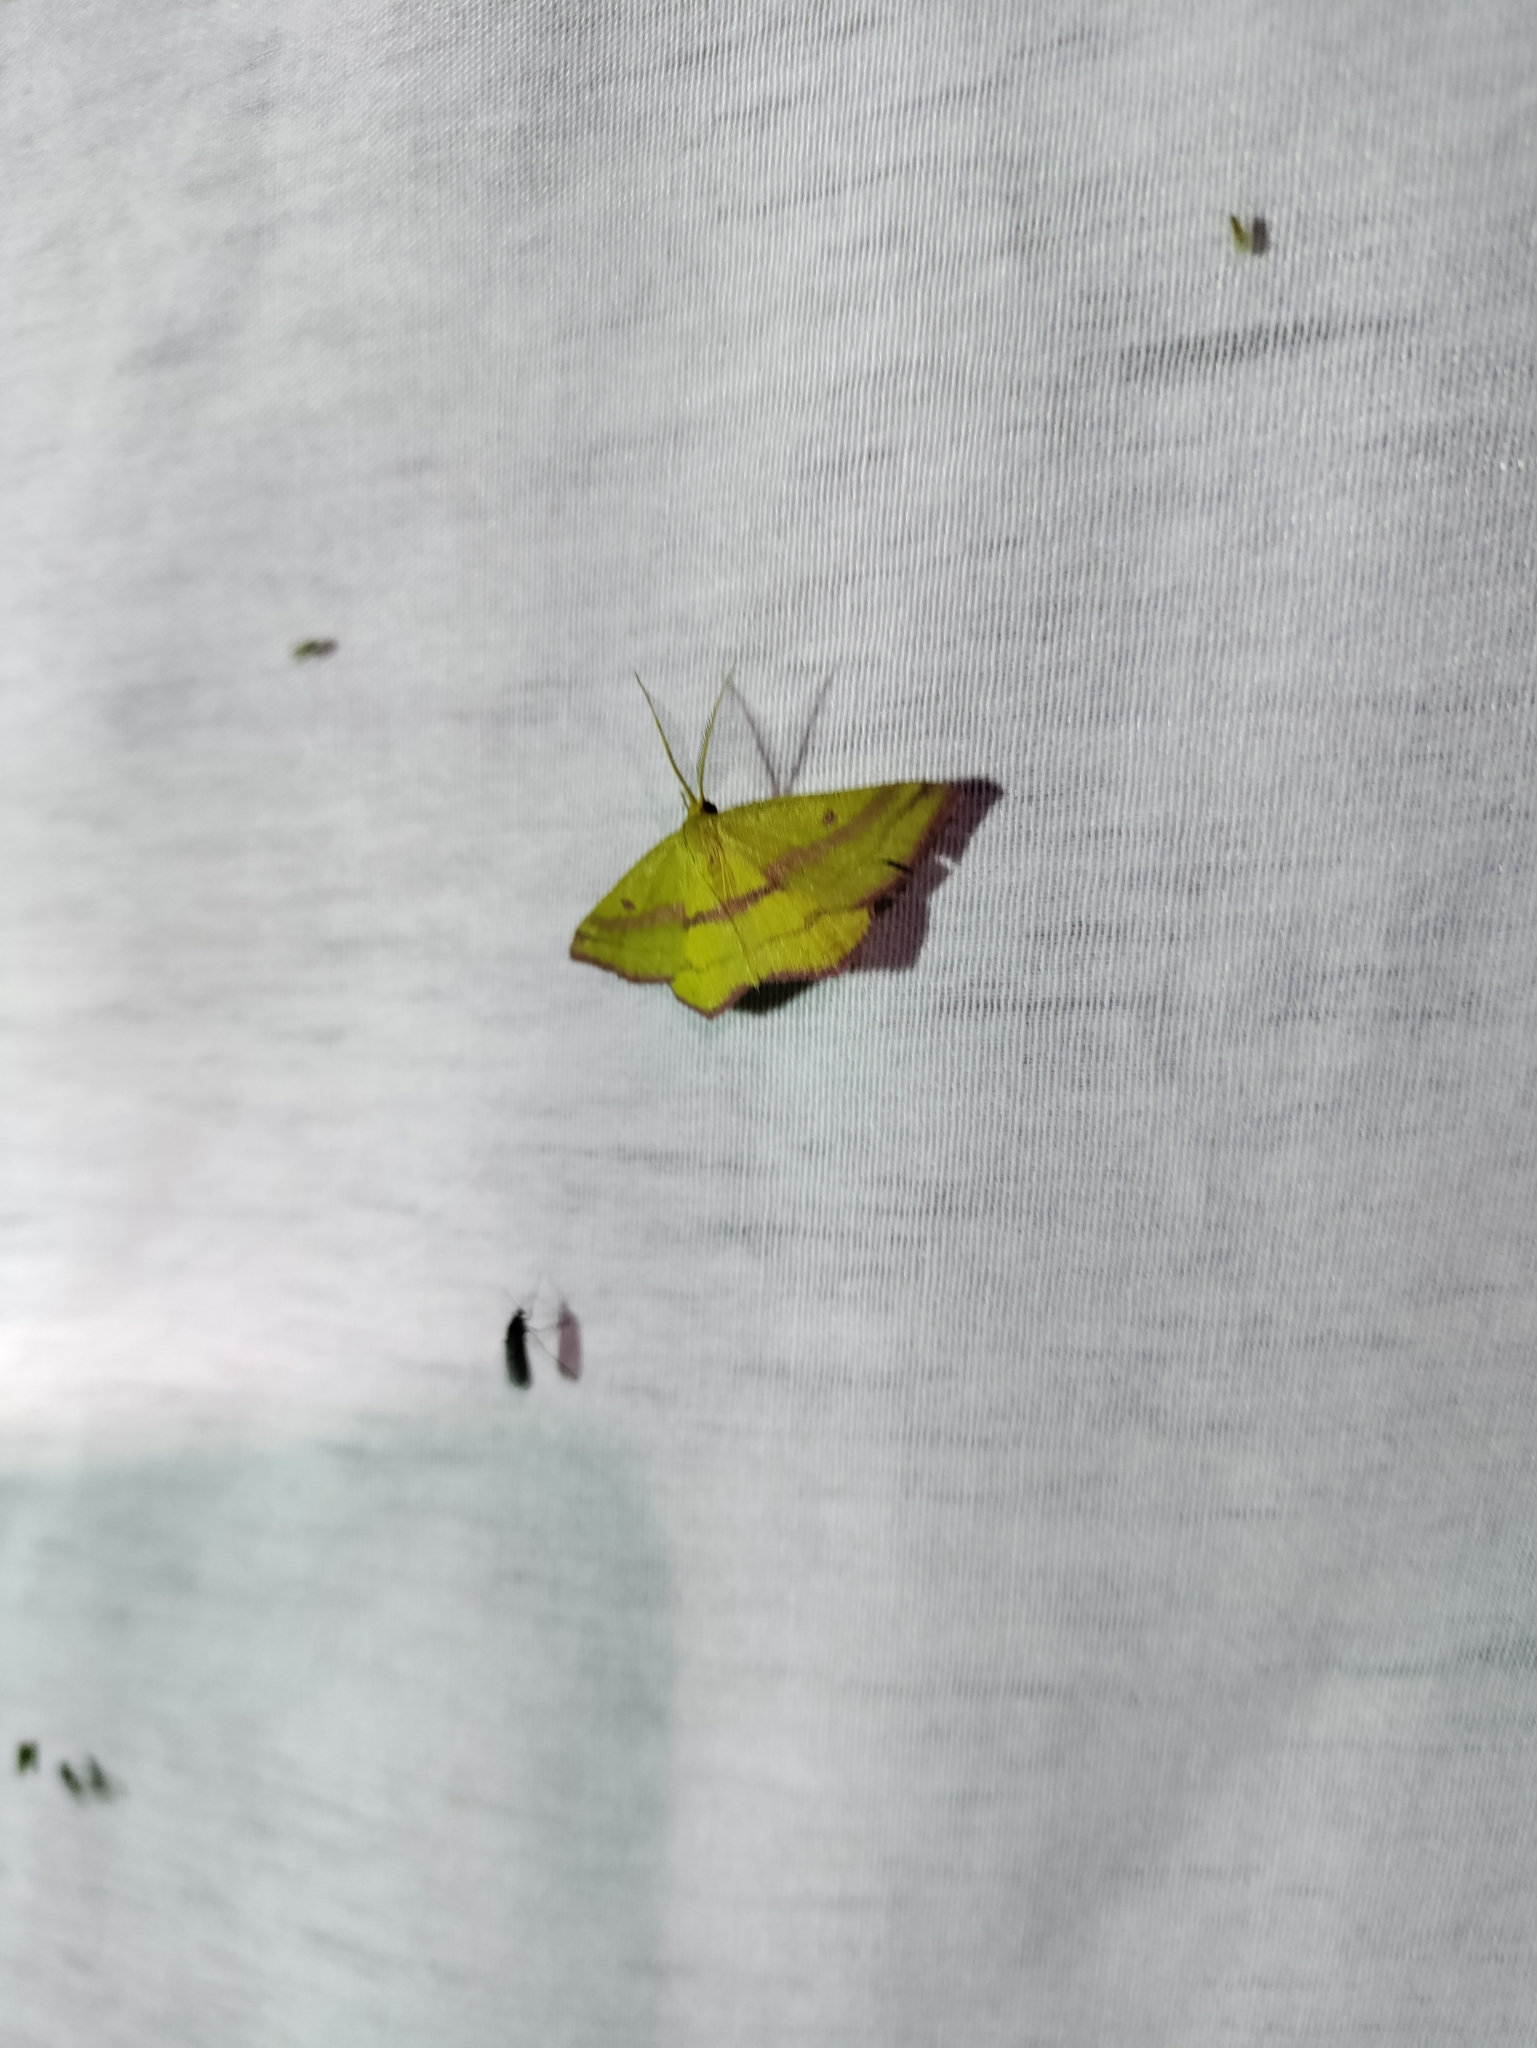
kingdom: Animalia
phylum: Arthropoda
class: Insecta
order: Lepidoptera
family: Geometridae
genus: Haematopis
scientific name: Haematopis grataria
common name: Chickweed geometer
